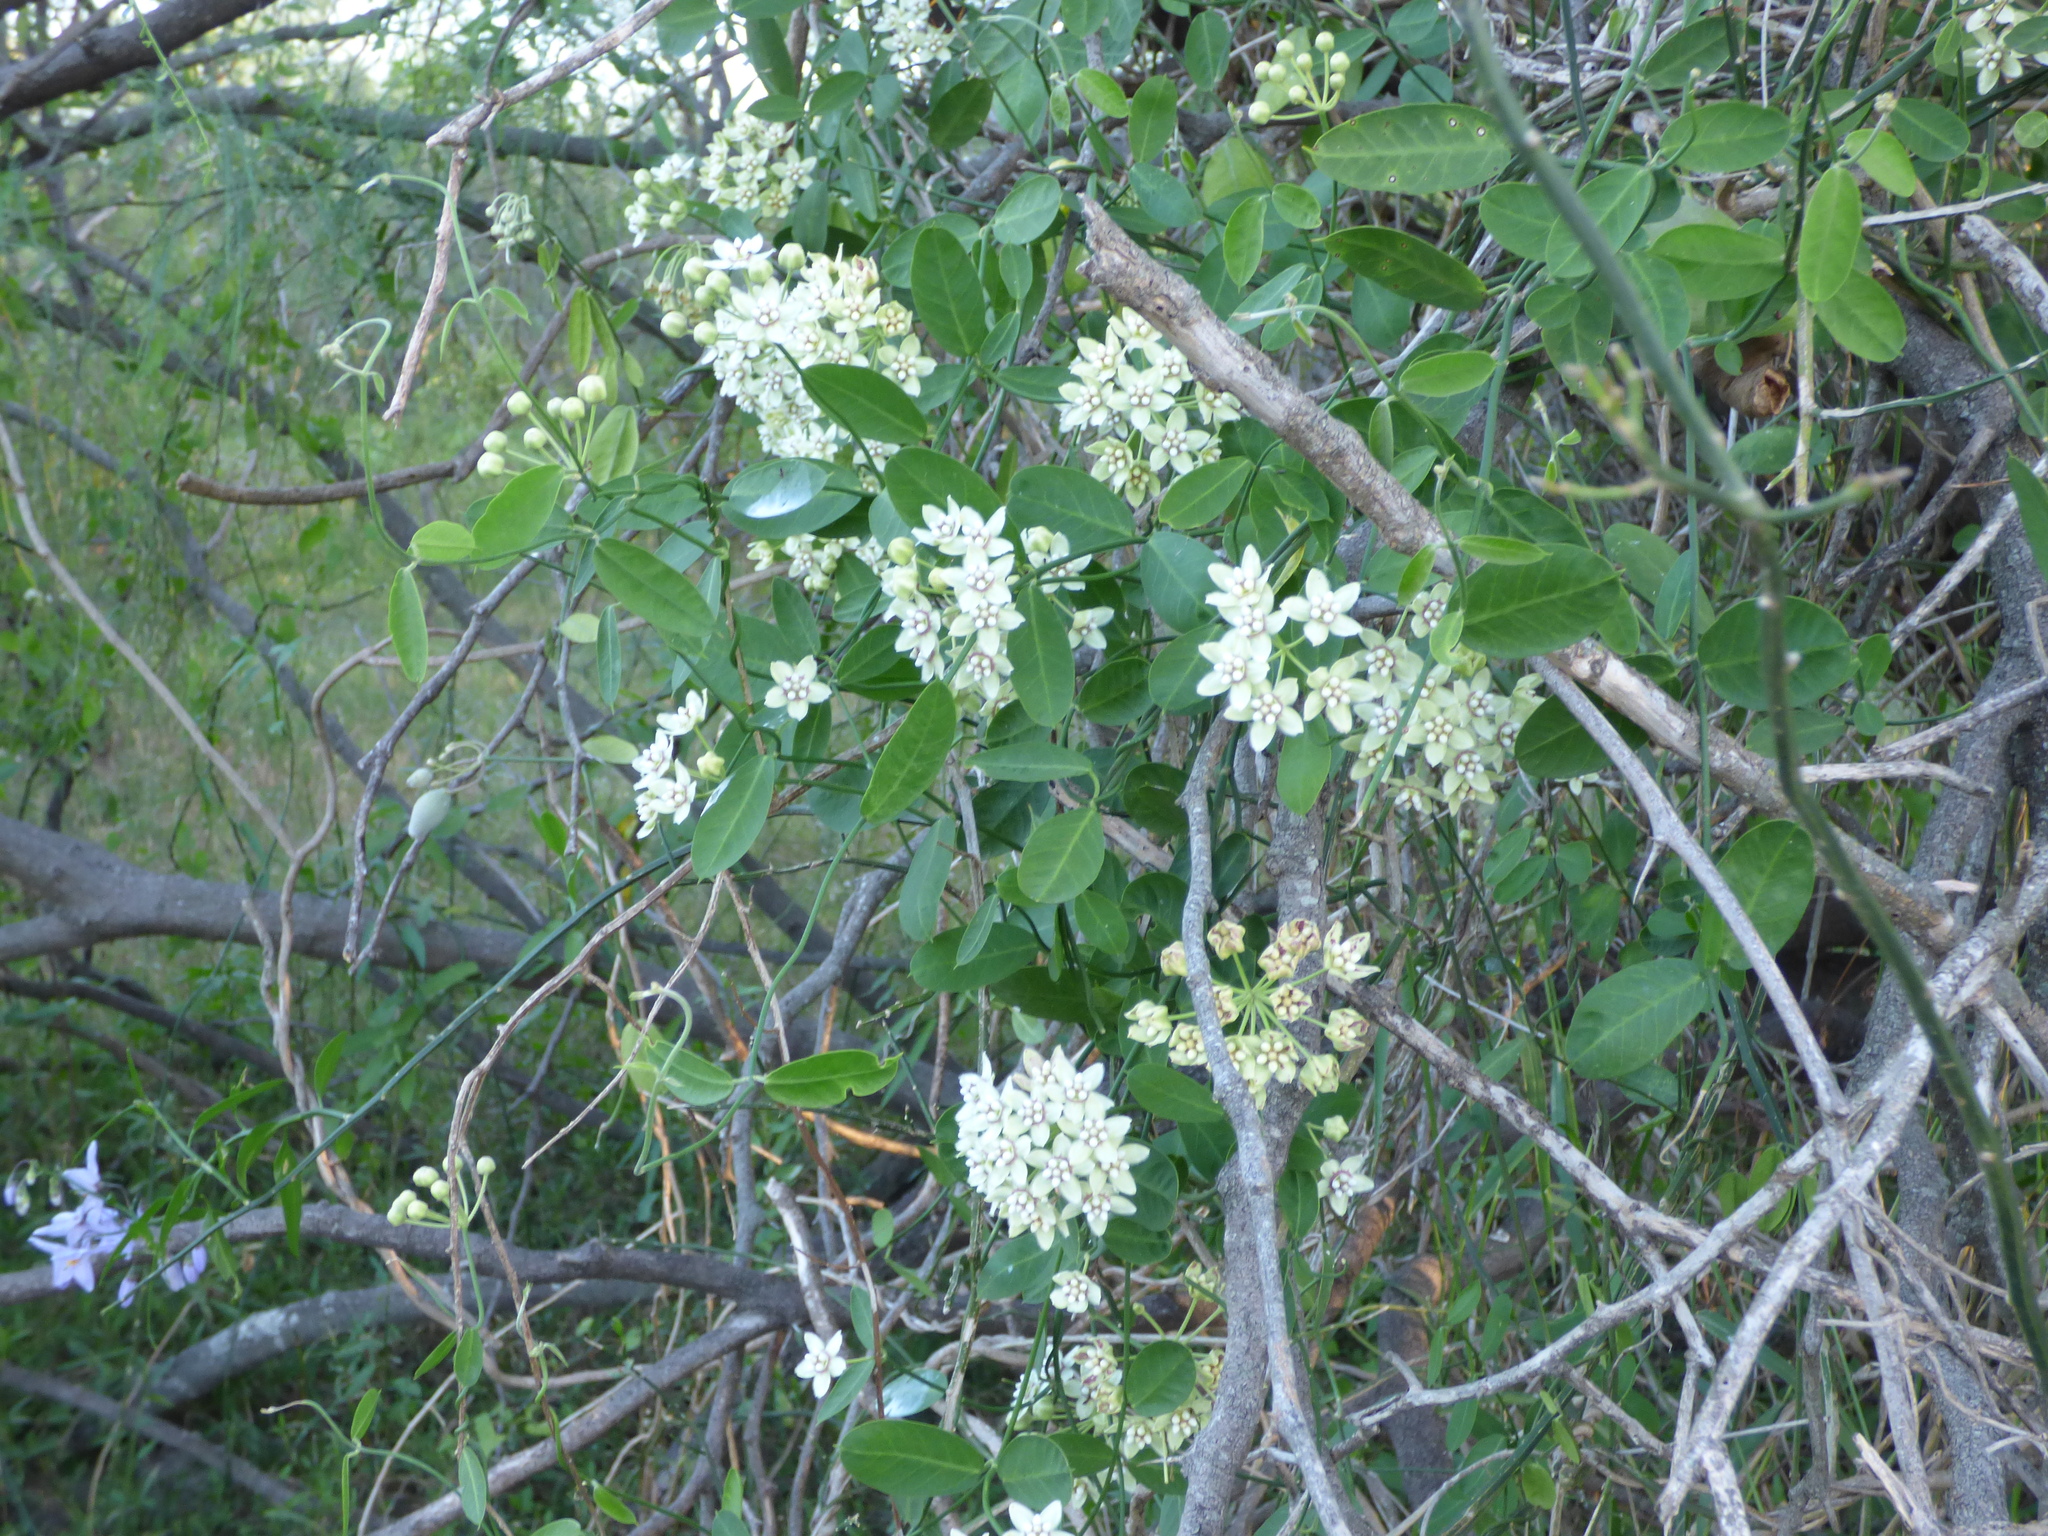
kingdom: Plantae
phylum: Tracheophyta
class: Magnoliopsida
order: Gentianales
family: Apocynaceae
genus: Funastrum
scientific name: Funastrum clausum
